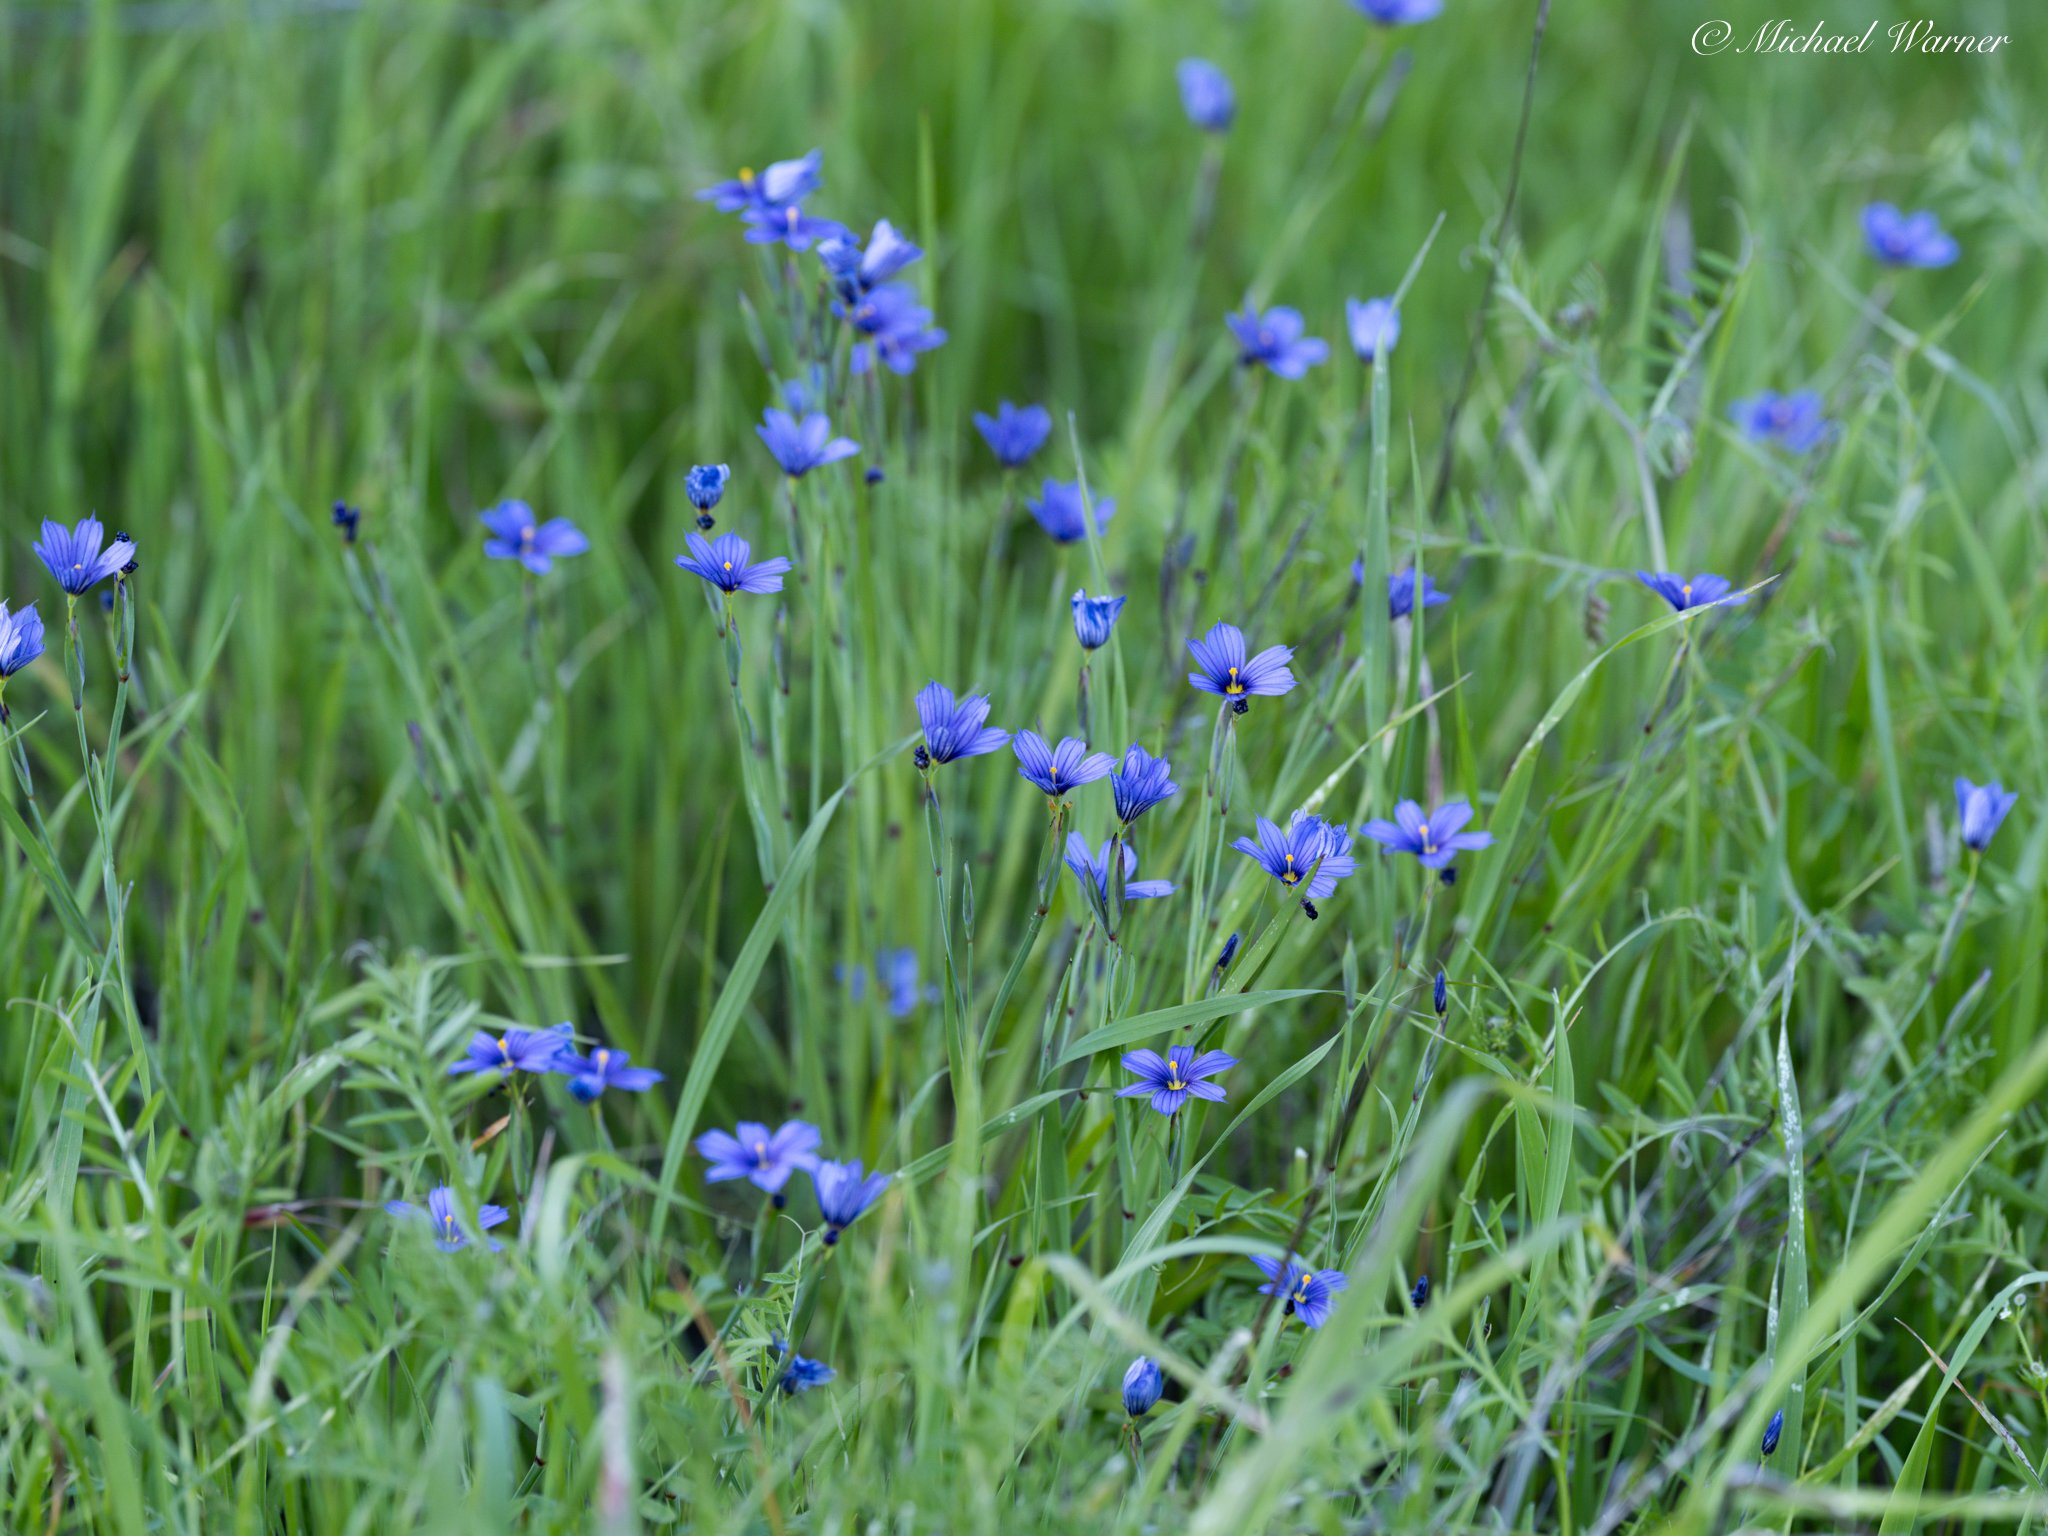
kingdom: Plantae
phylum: Tracheophyta
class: Liliopsida
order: Asparagales
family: Iridaceae
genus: Sisyrinchium
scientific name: Sisyrinchium bellum
